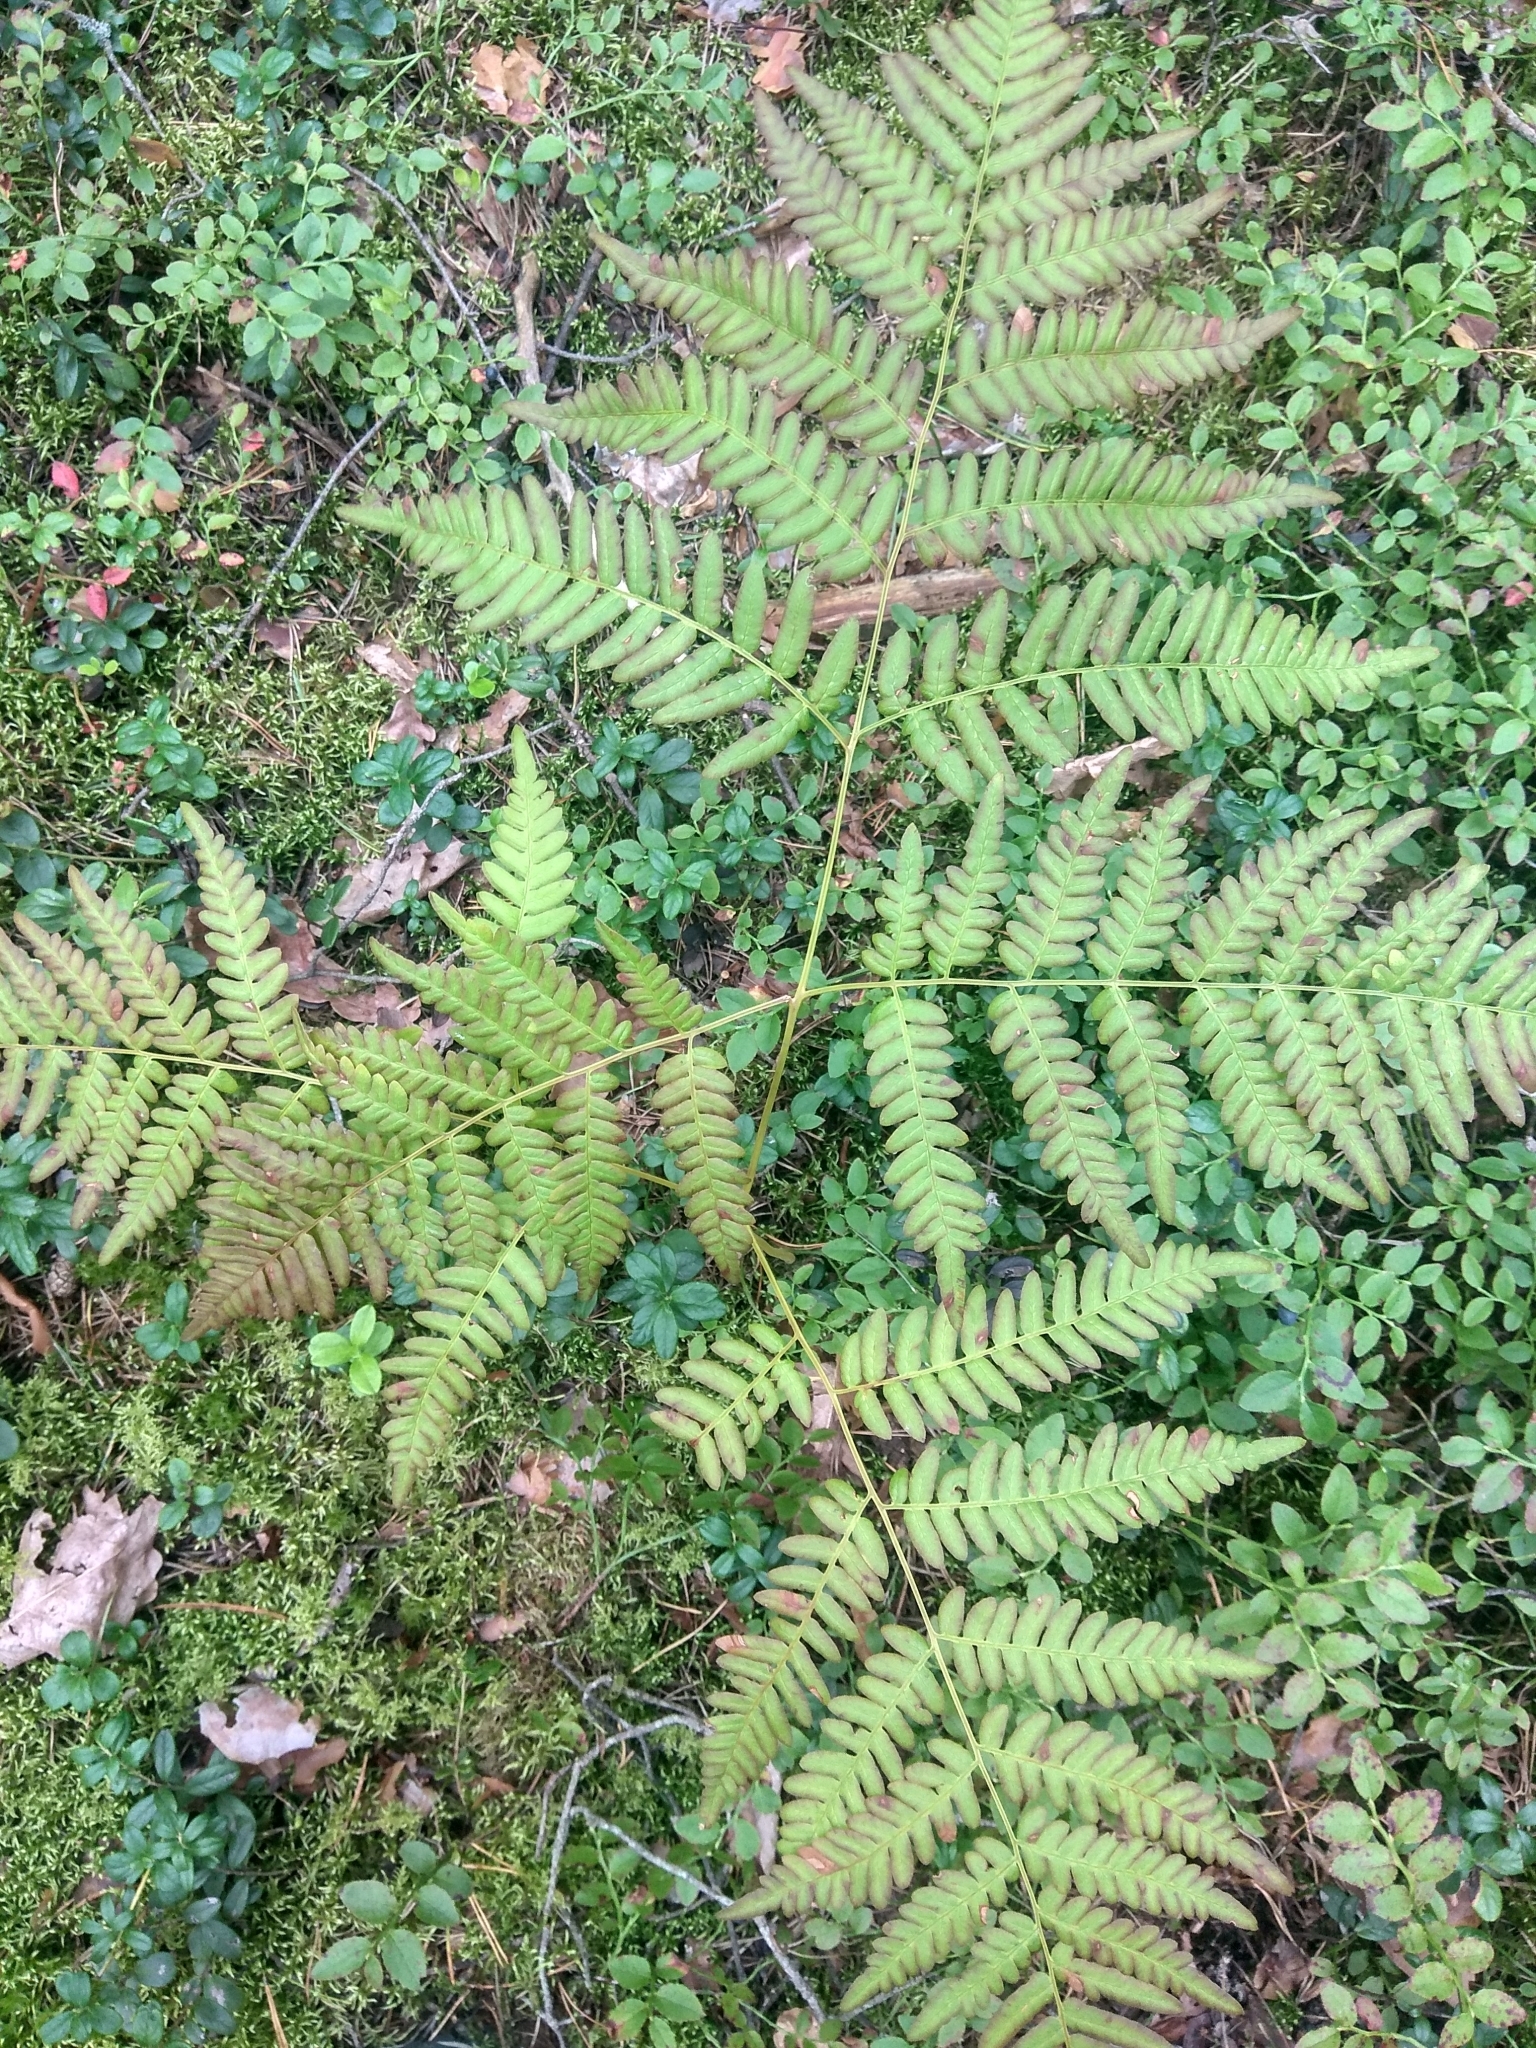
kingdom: Plantae
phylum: Tracheophyta
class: Polypodiopsida
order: Polypodiales
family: Dennstaedtiaceae
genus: Pteridium
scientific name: Pteridium aquilinum
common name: Bracken
